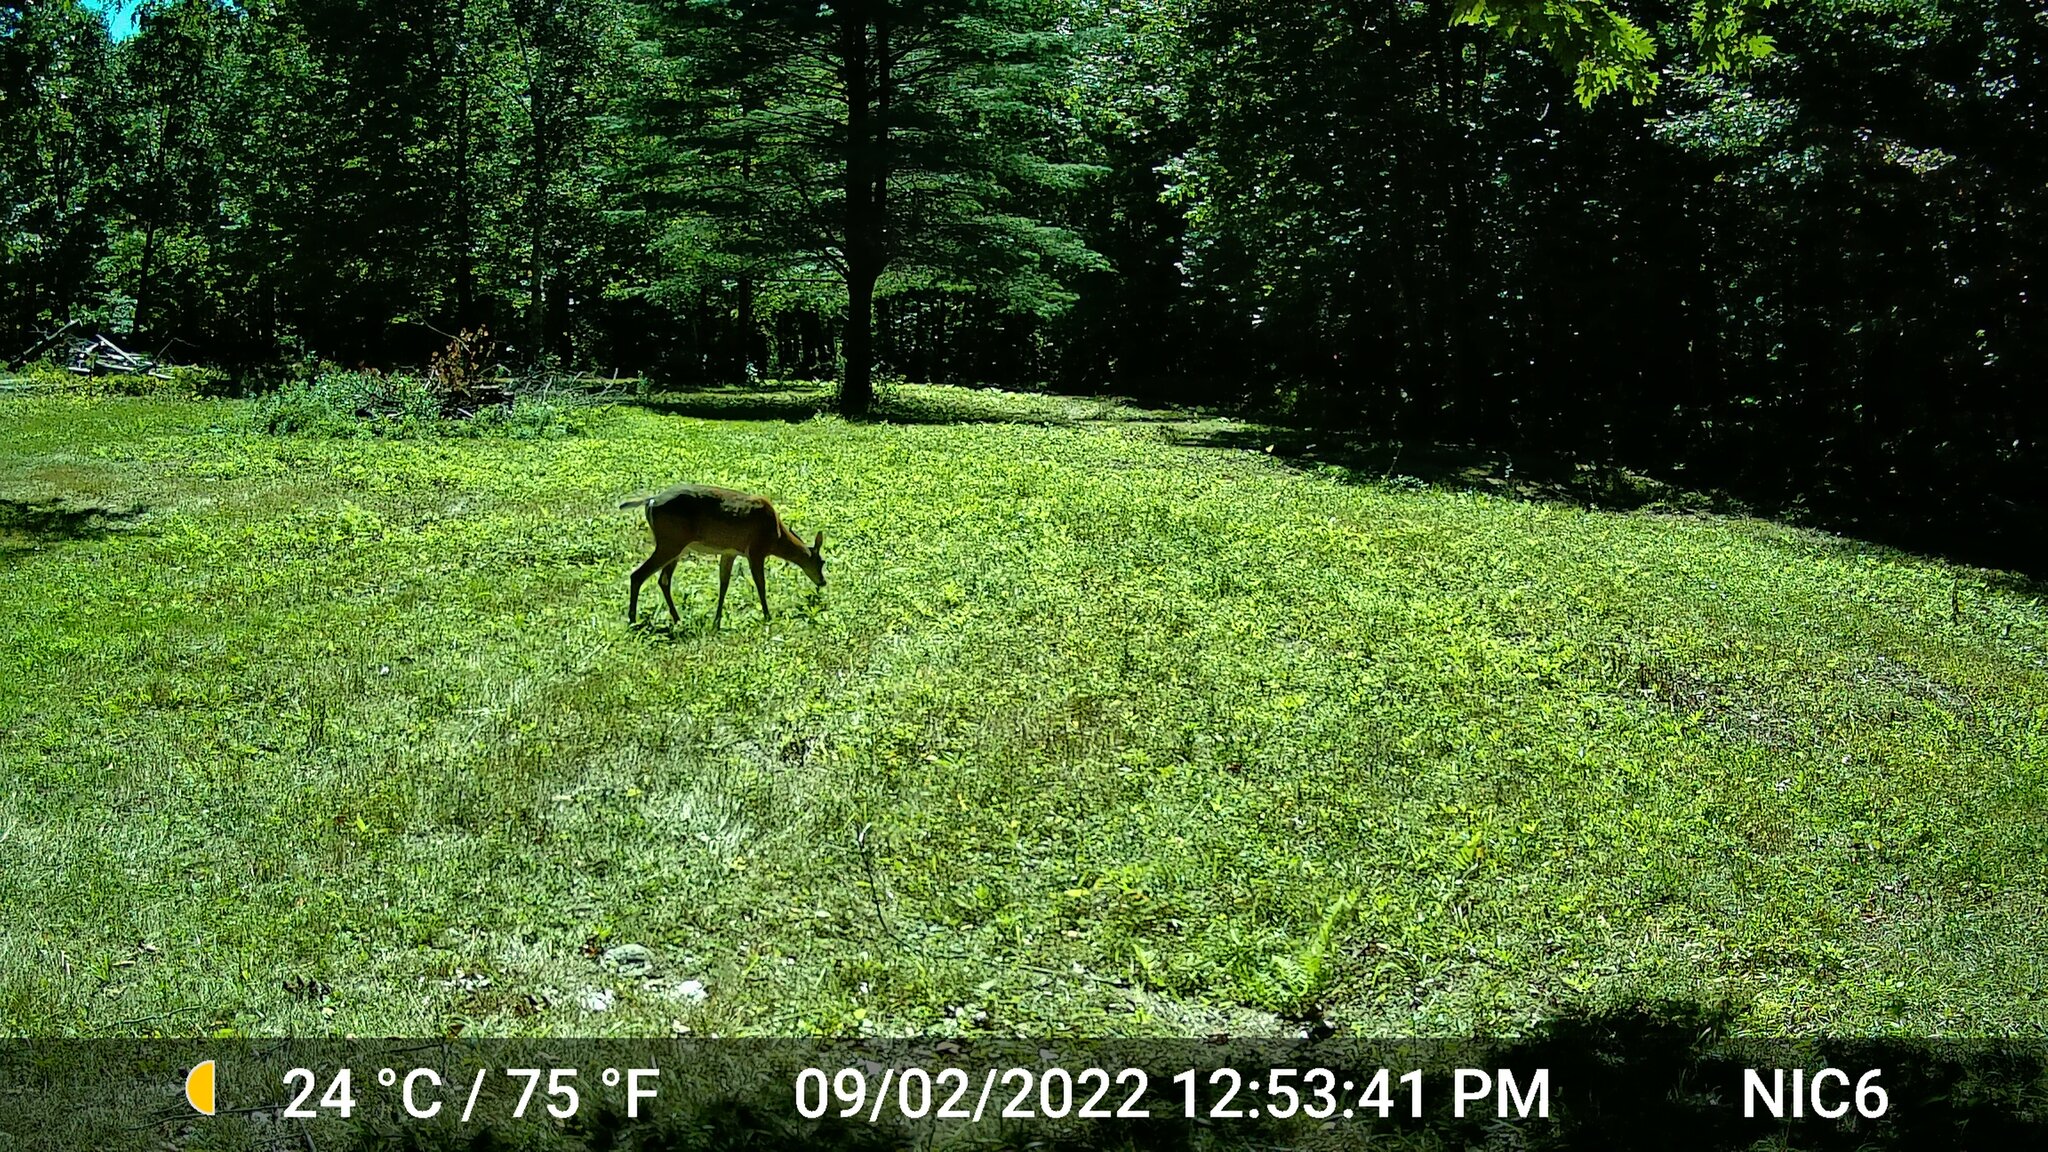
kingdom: Animalia
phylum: Chordata
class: Mammalia
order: Artiodactyla
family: Cervidae
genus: Odocoileus
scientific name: Odocoileus virginianus
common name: White-tailed deer
